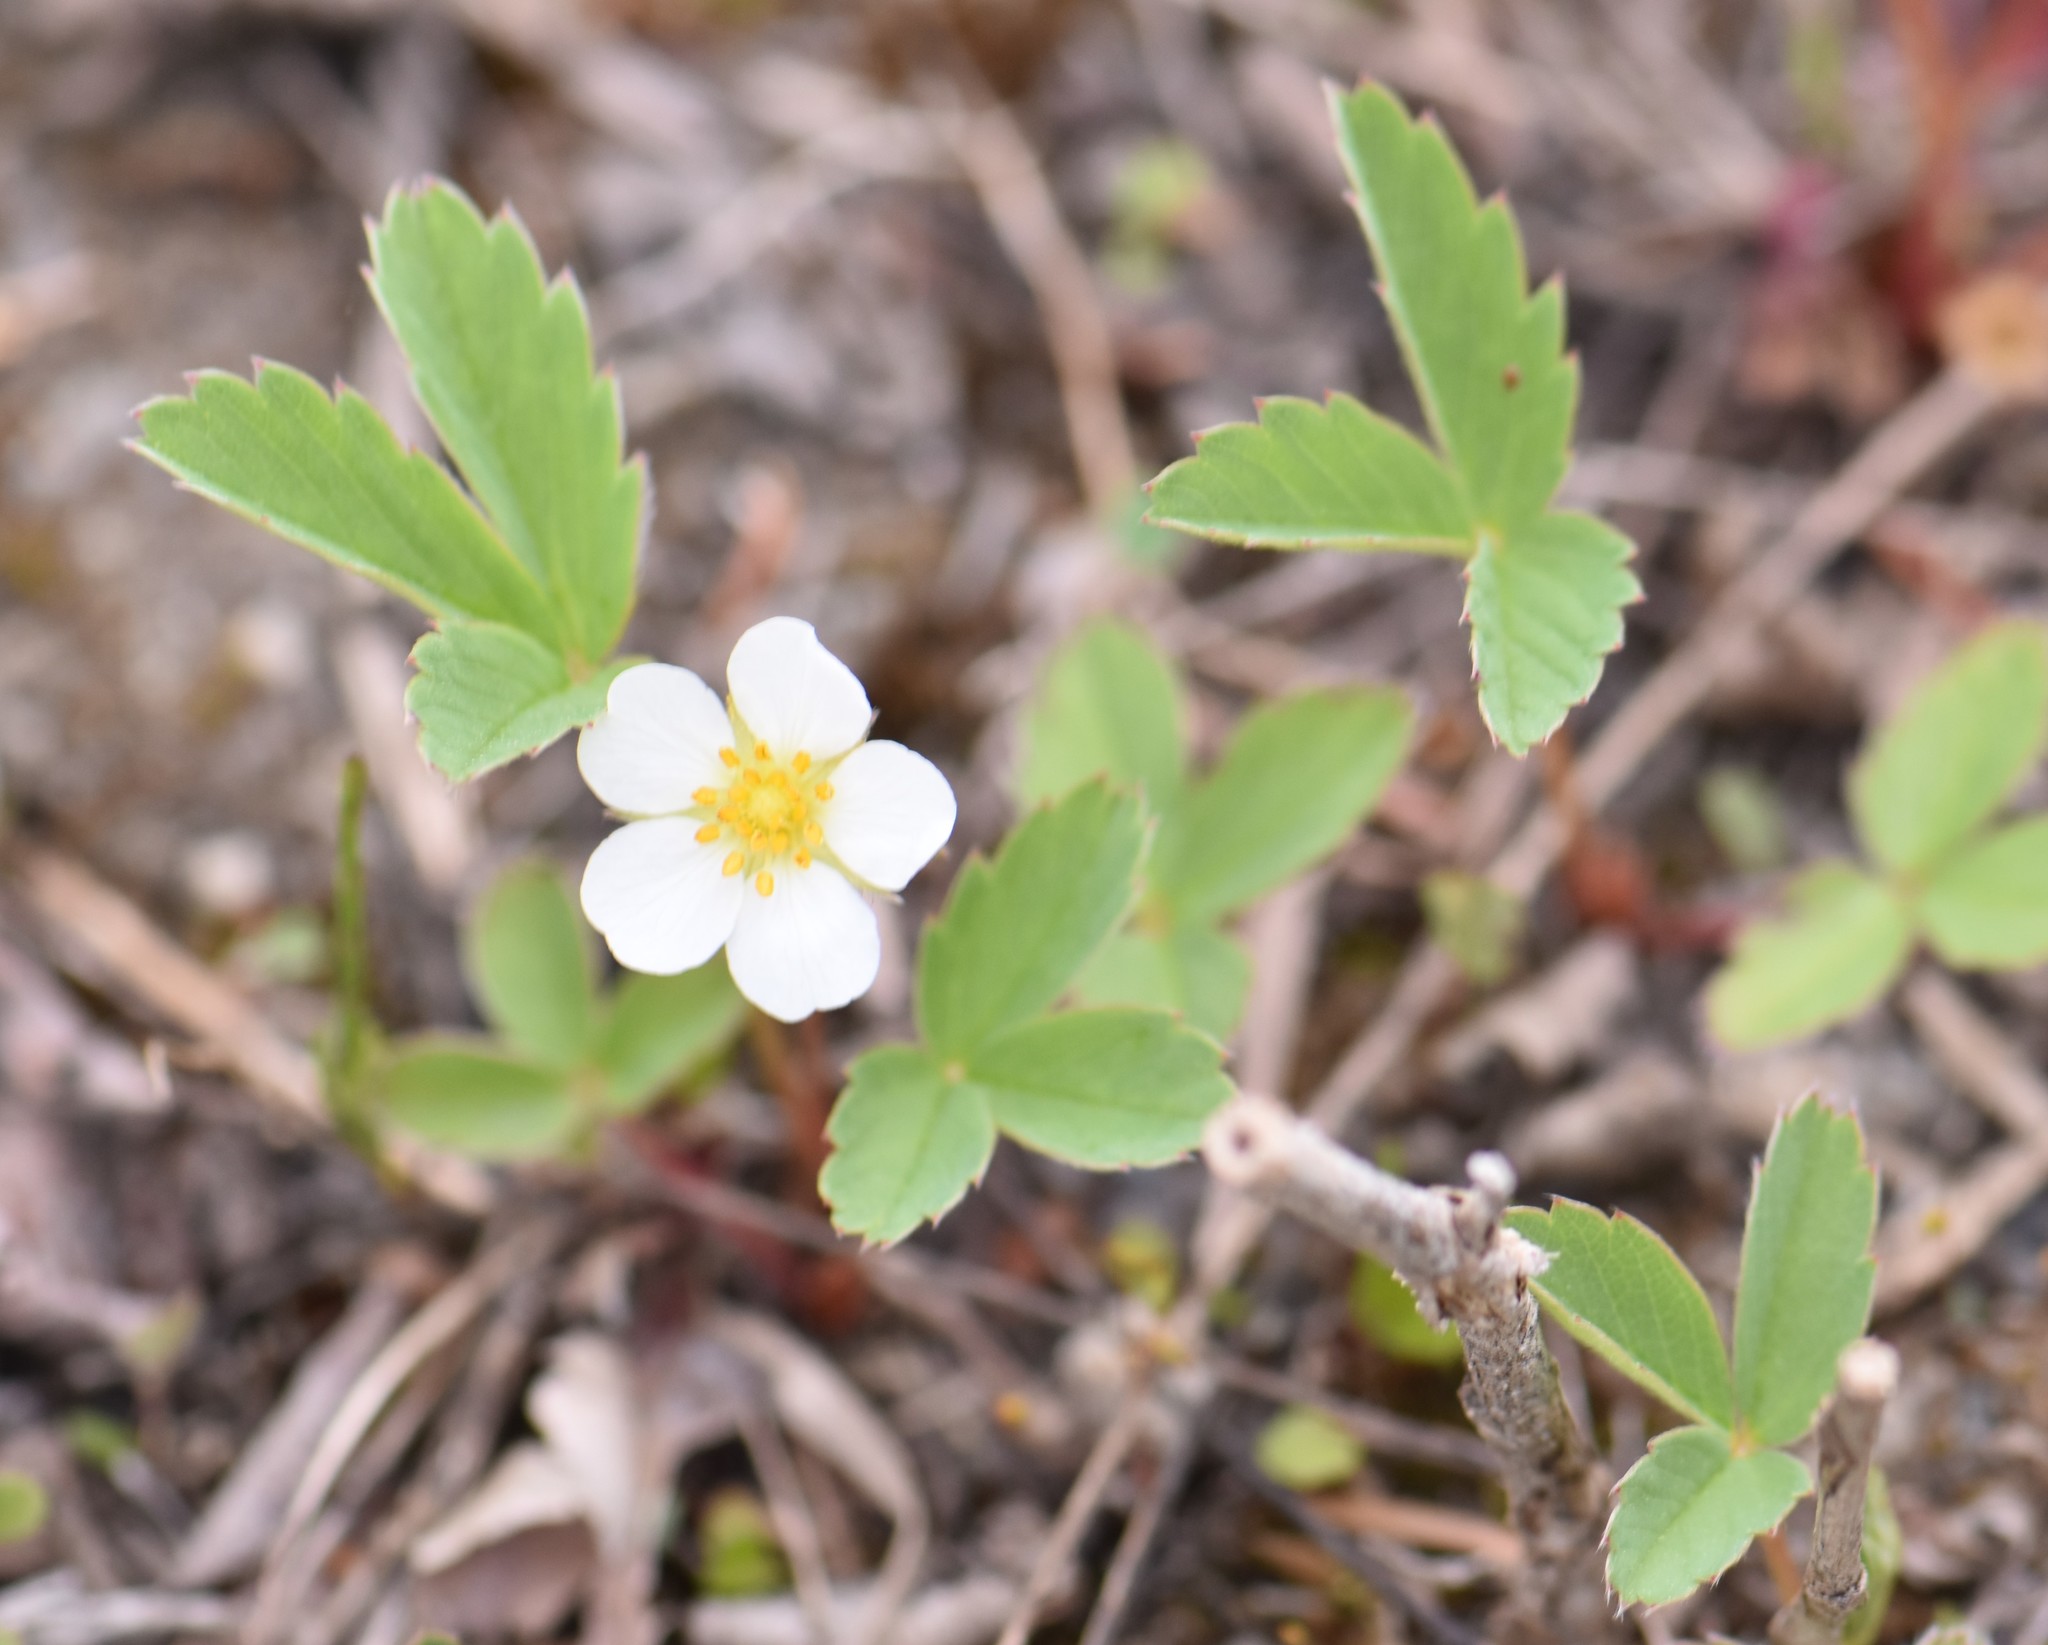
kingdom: Plantae
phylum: Tracheophyta
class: Magnoliopsida
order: Rosales
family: Rosaceae
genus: Fragaria
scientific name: Fragaria virginiana
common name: Thickleaved wild strawberry
